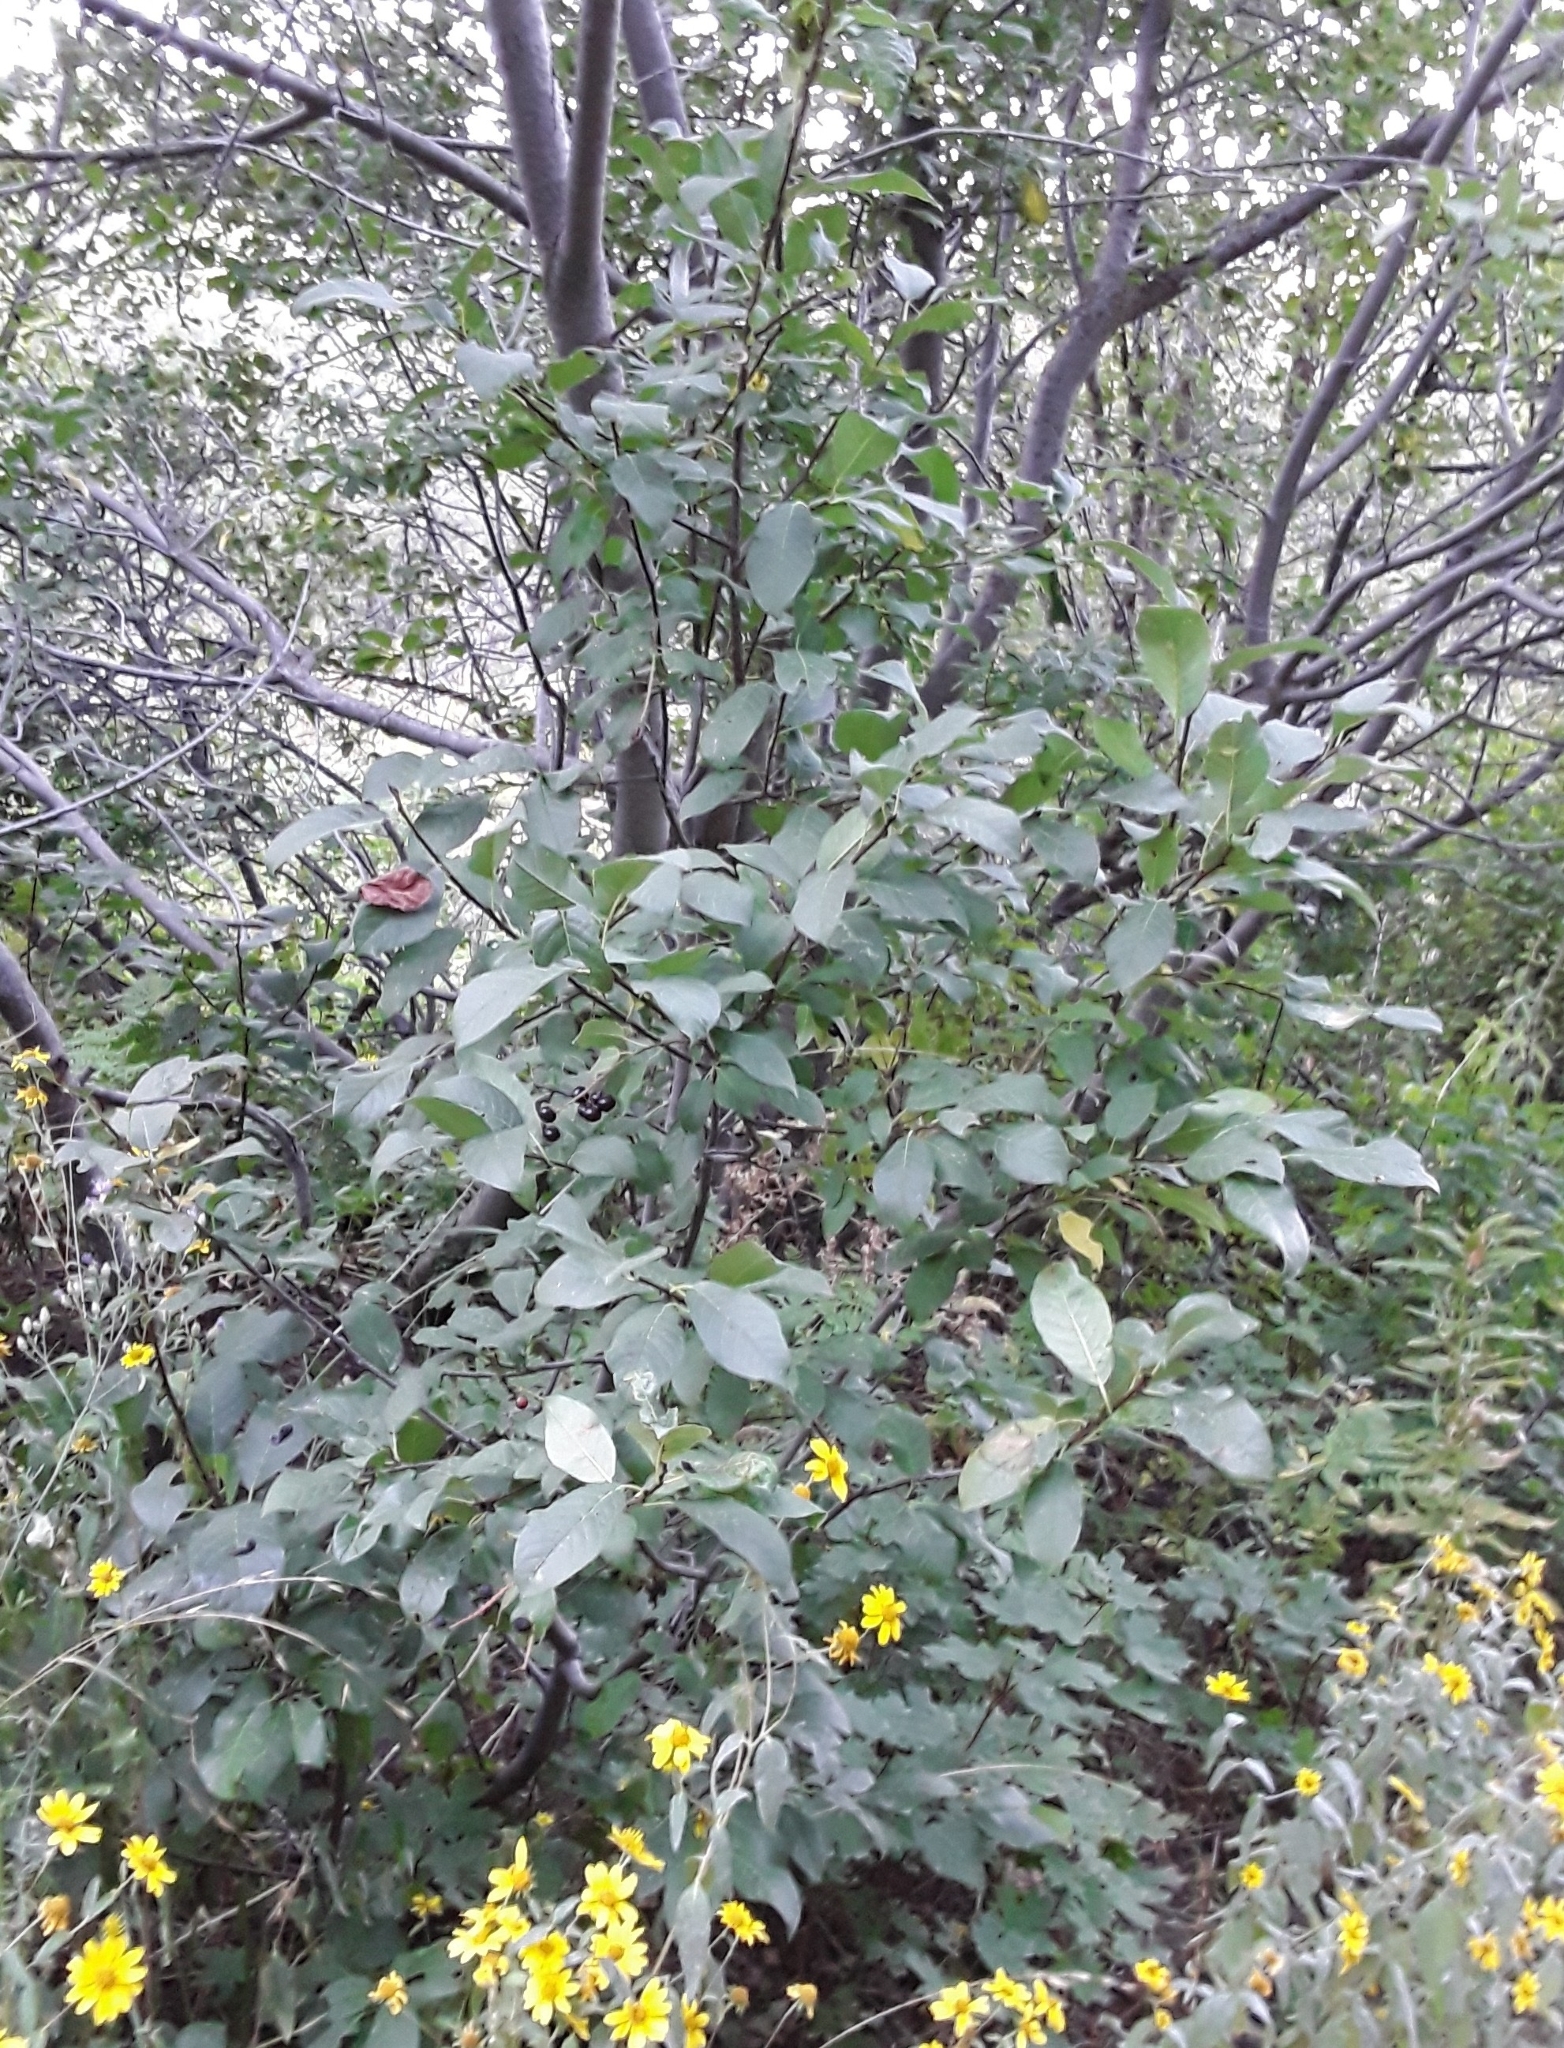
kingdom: Plantae
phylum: Tracheophyta
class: Magnoliopsida
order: Rosales
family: Rosaceae
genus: Prunus
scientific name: Prunus virginiana
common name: Chokecherry
